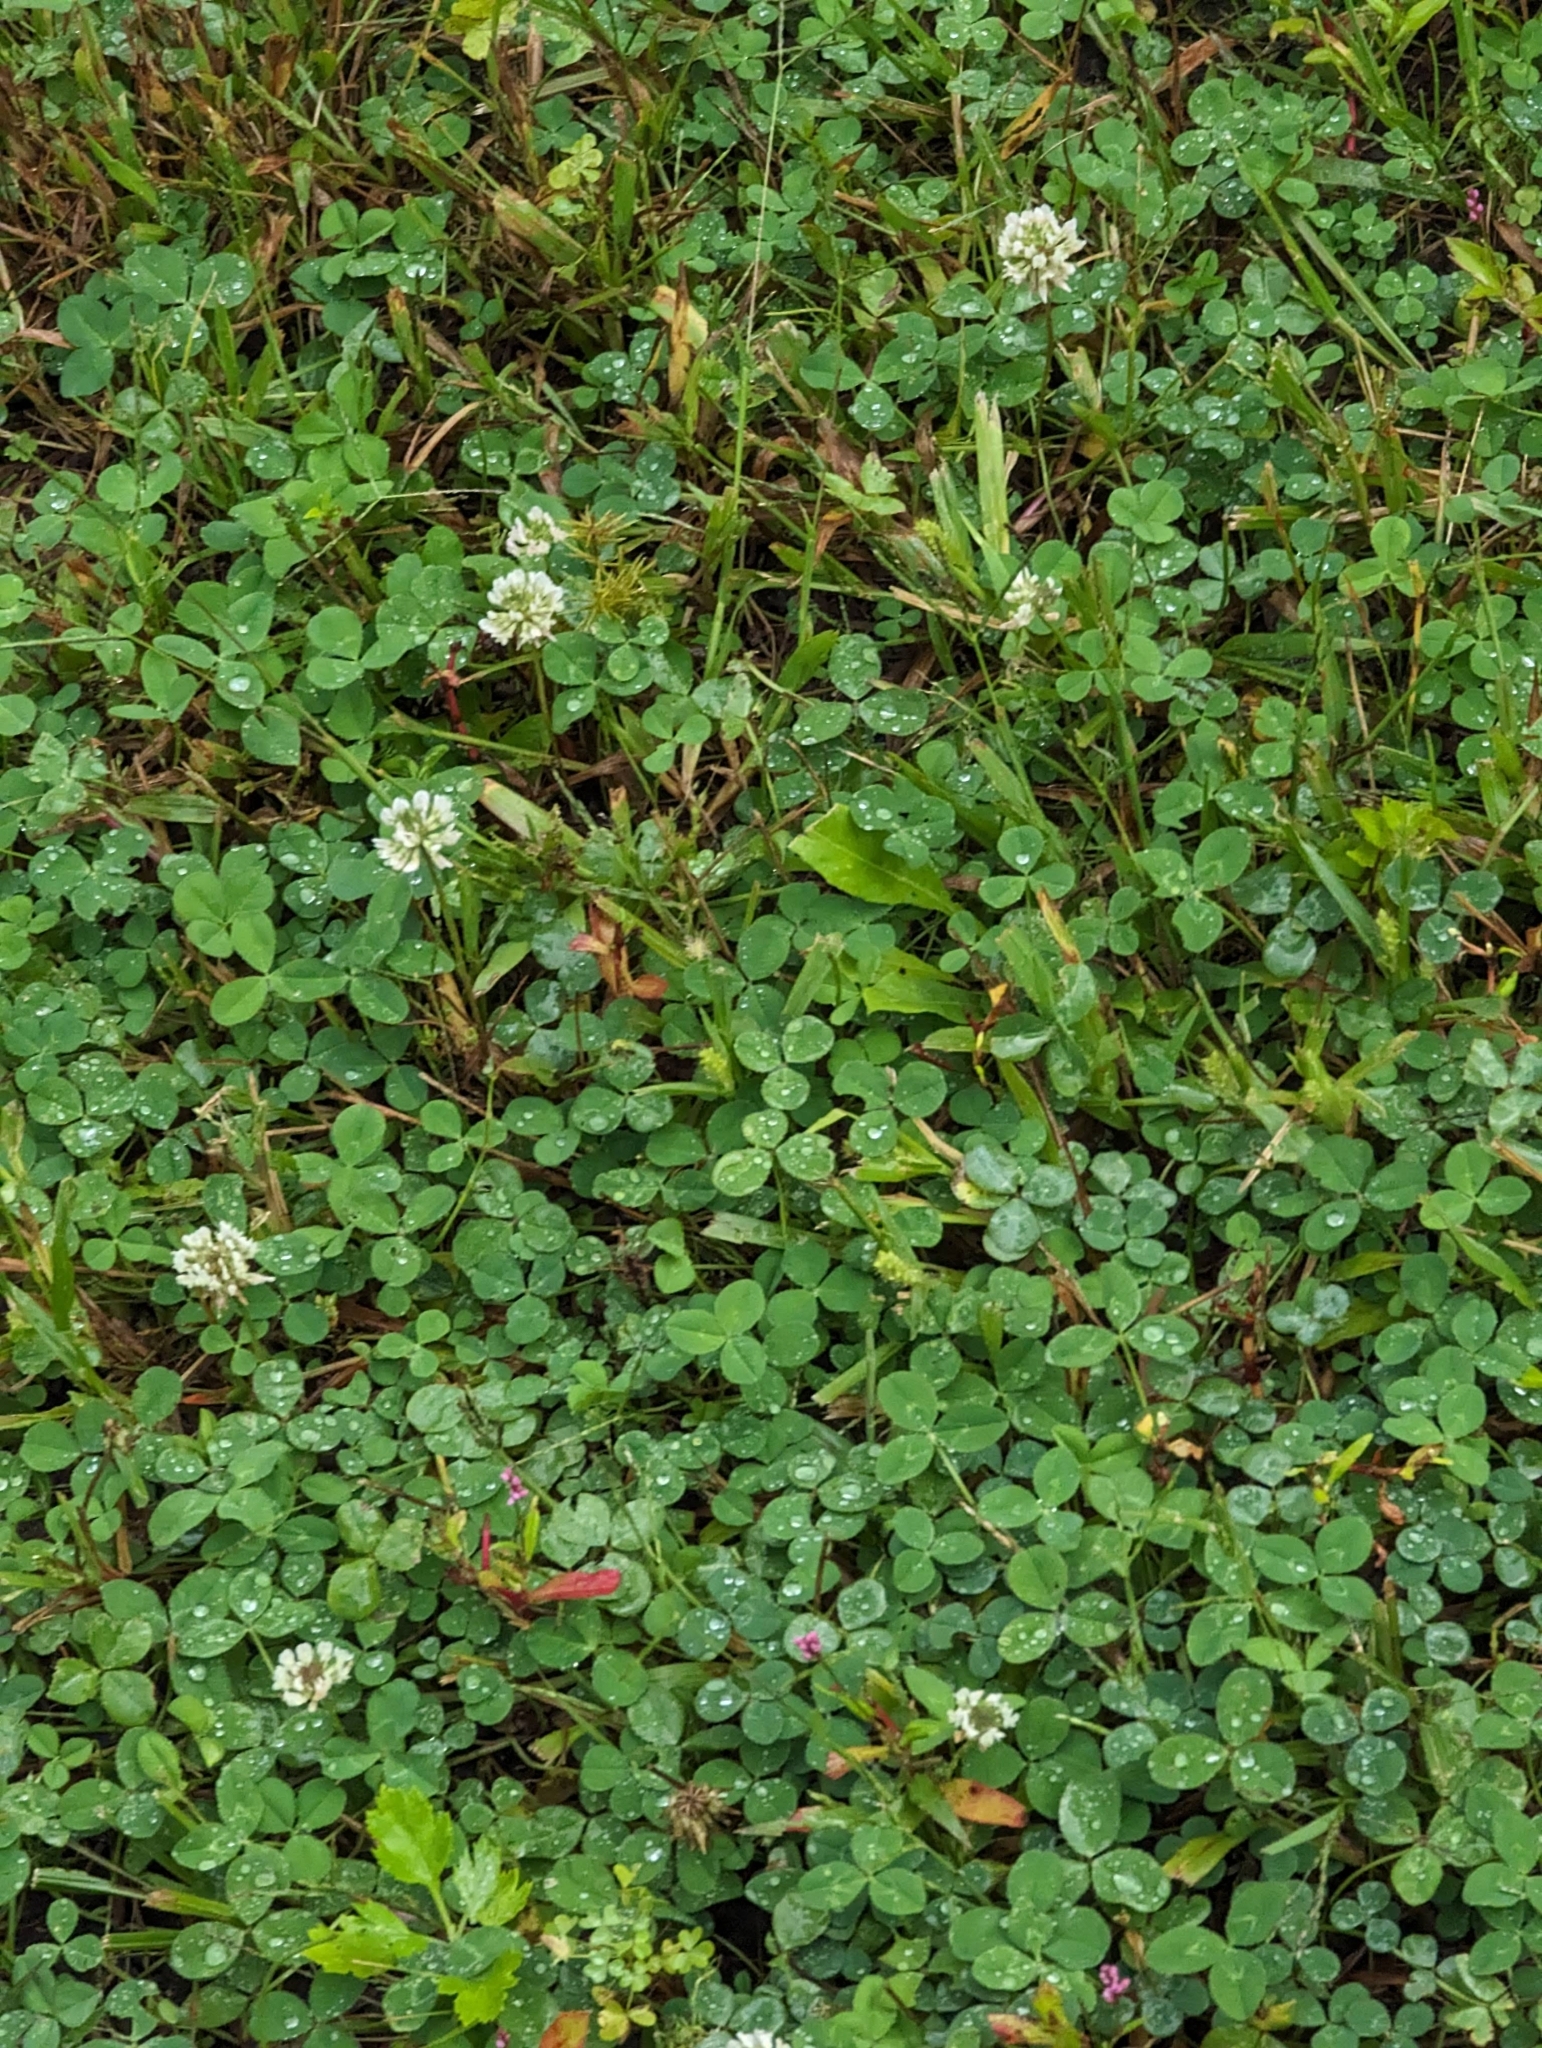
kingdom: Plantae
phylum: Tracheophyta
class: Magnoliopsida
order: Fabales
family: Fabaceae
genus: Trifolium
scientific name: Trifolium repens
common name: White clover
